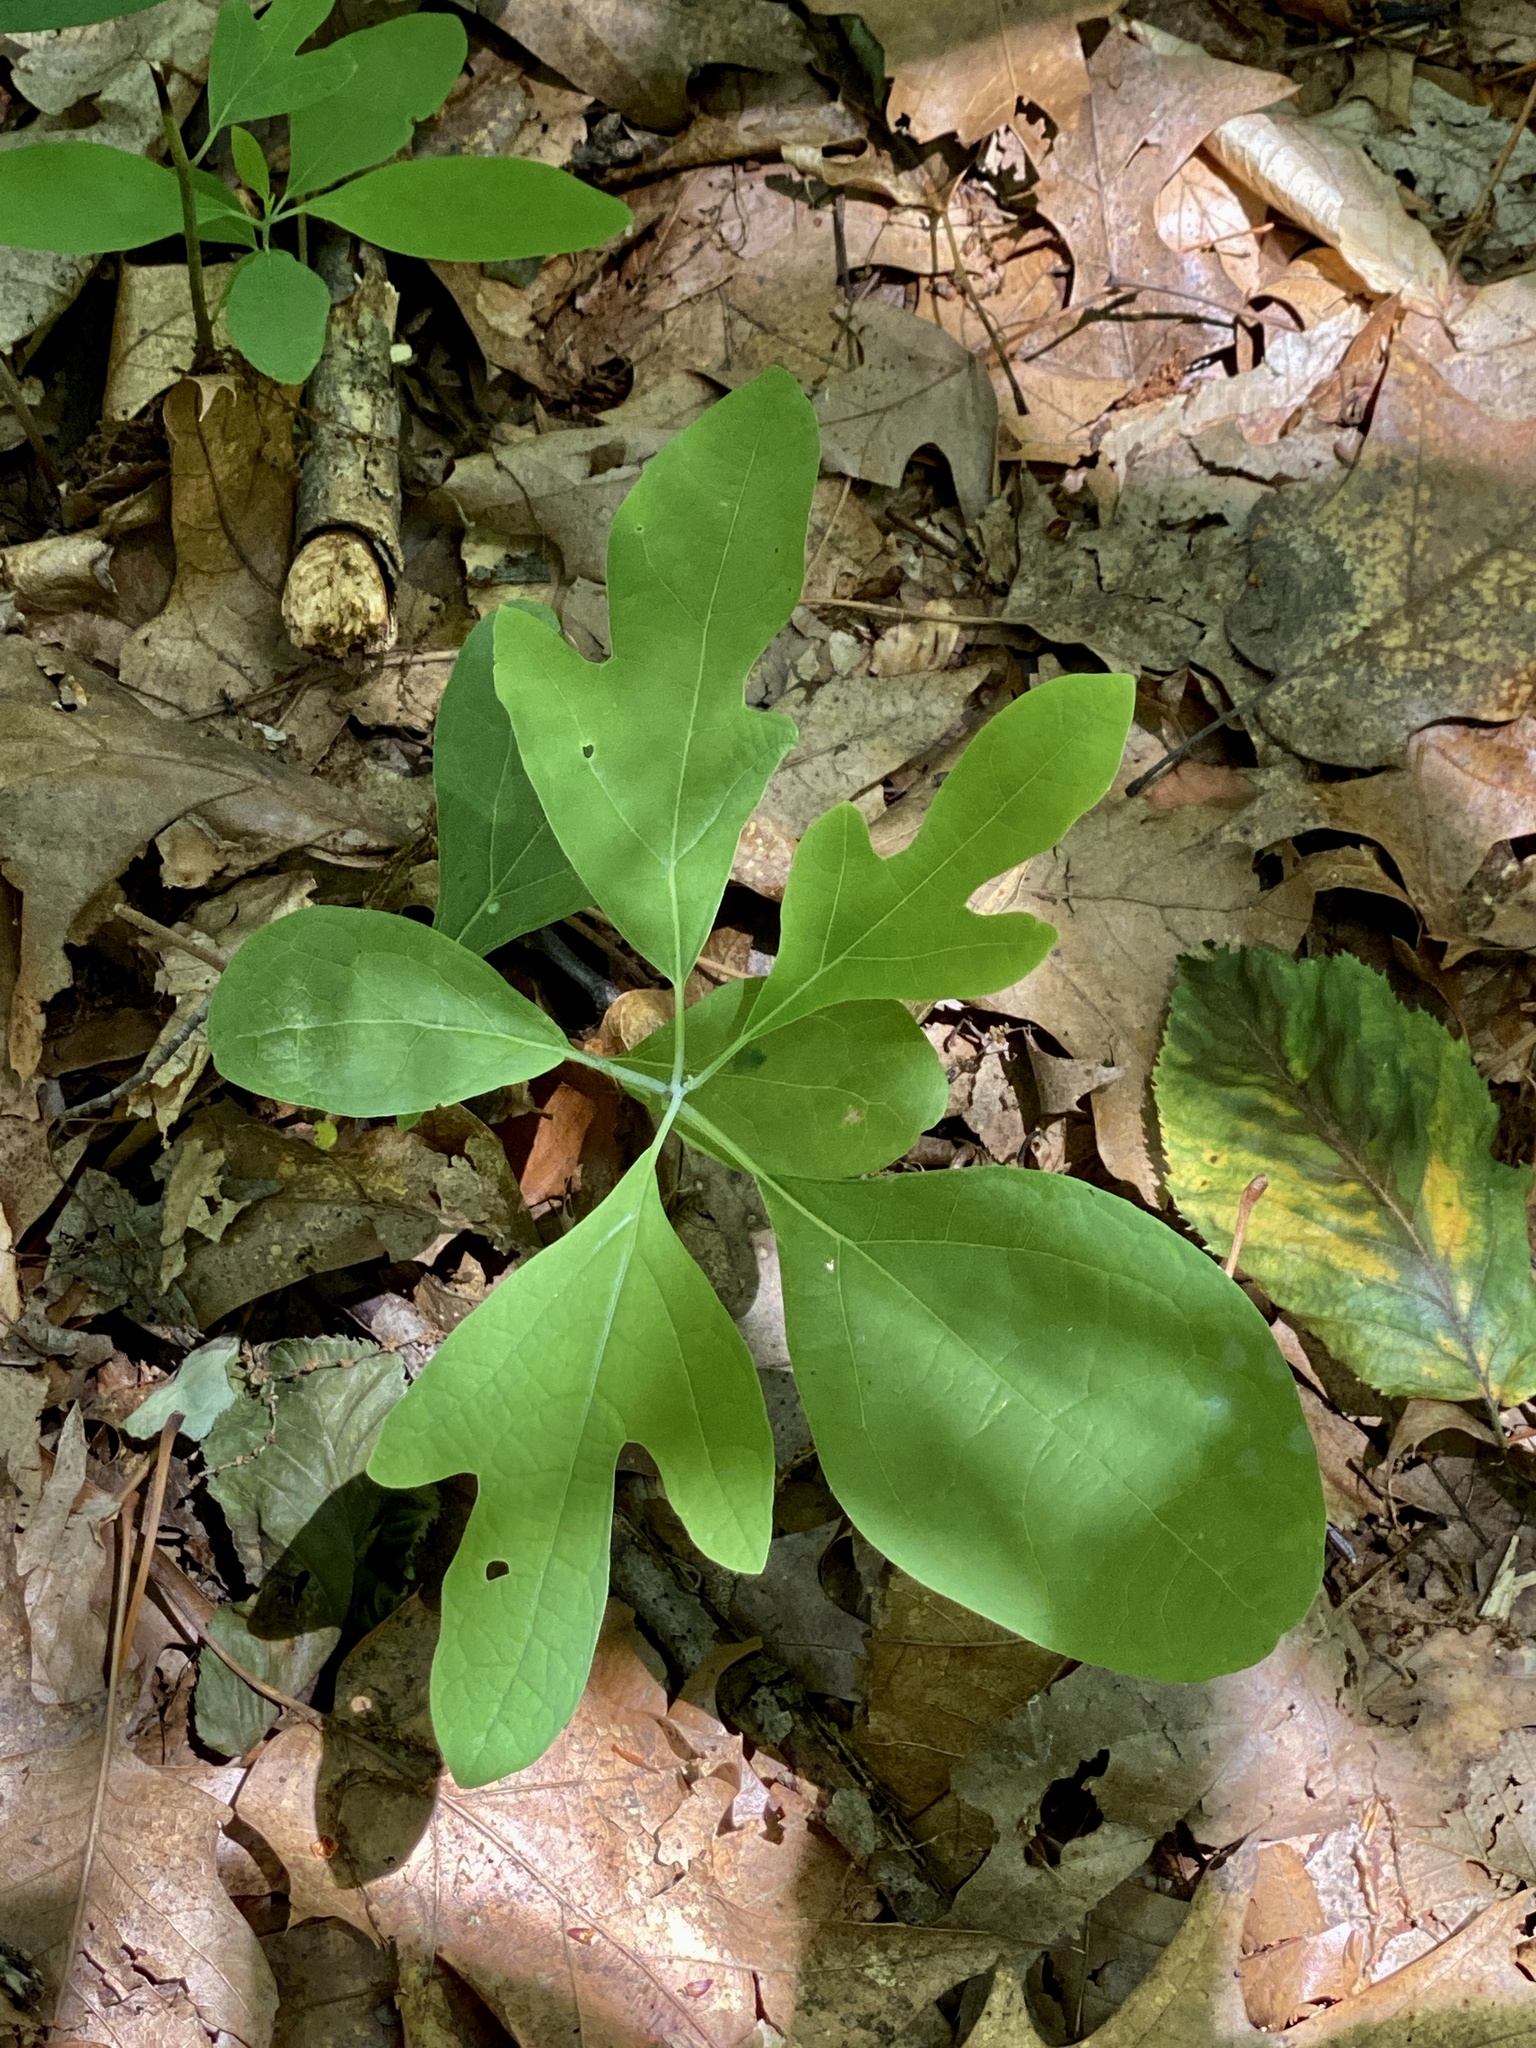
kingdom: Plantae
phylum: Tracheophyta
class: Magnoliopsida
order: Laurales
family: Lauraceae
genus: Sassafras
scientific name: Sassafras albidum
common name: Sassafras
